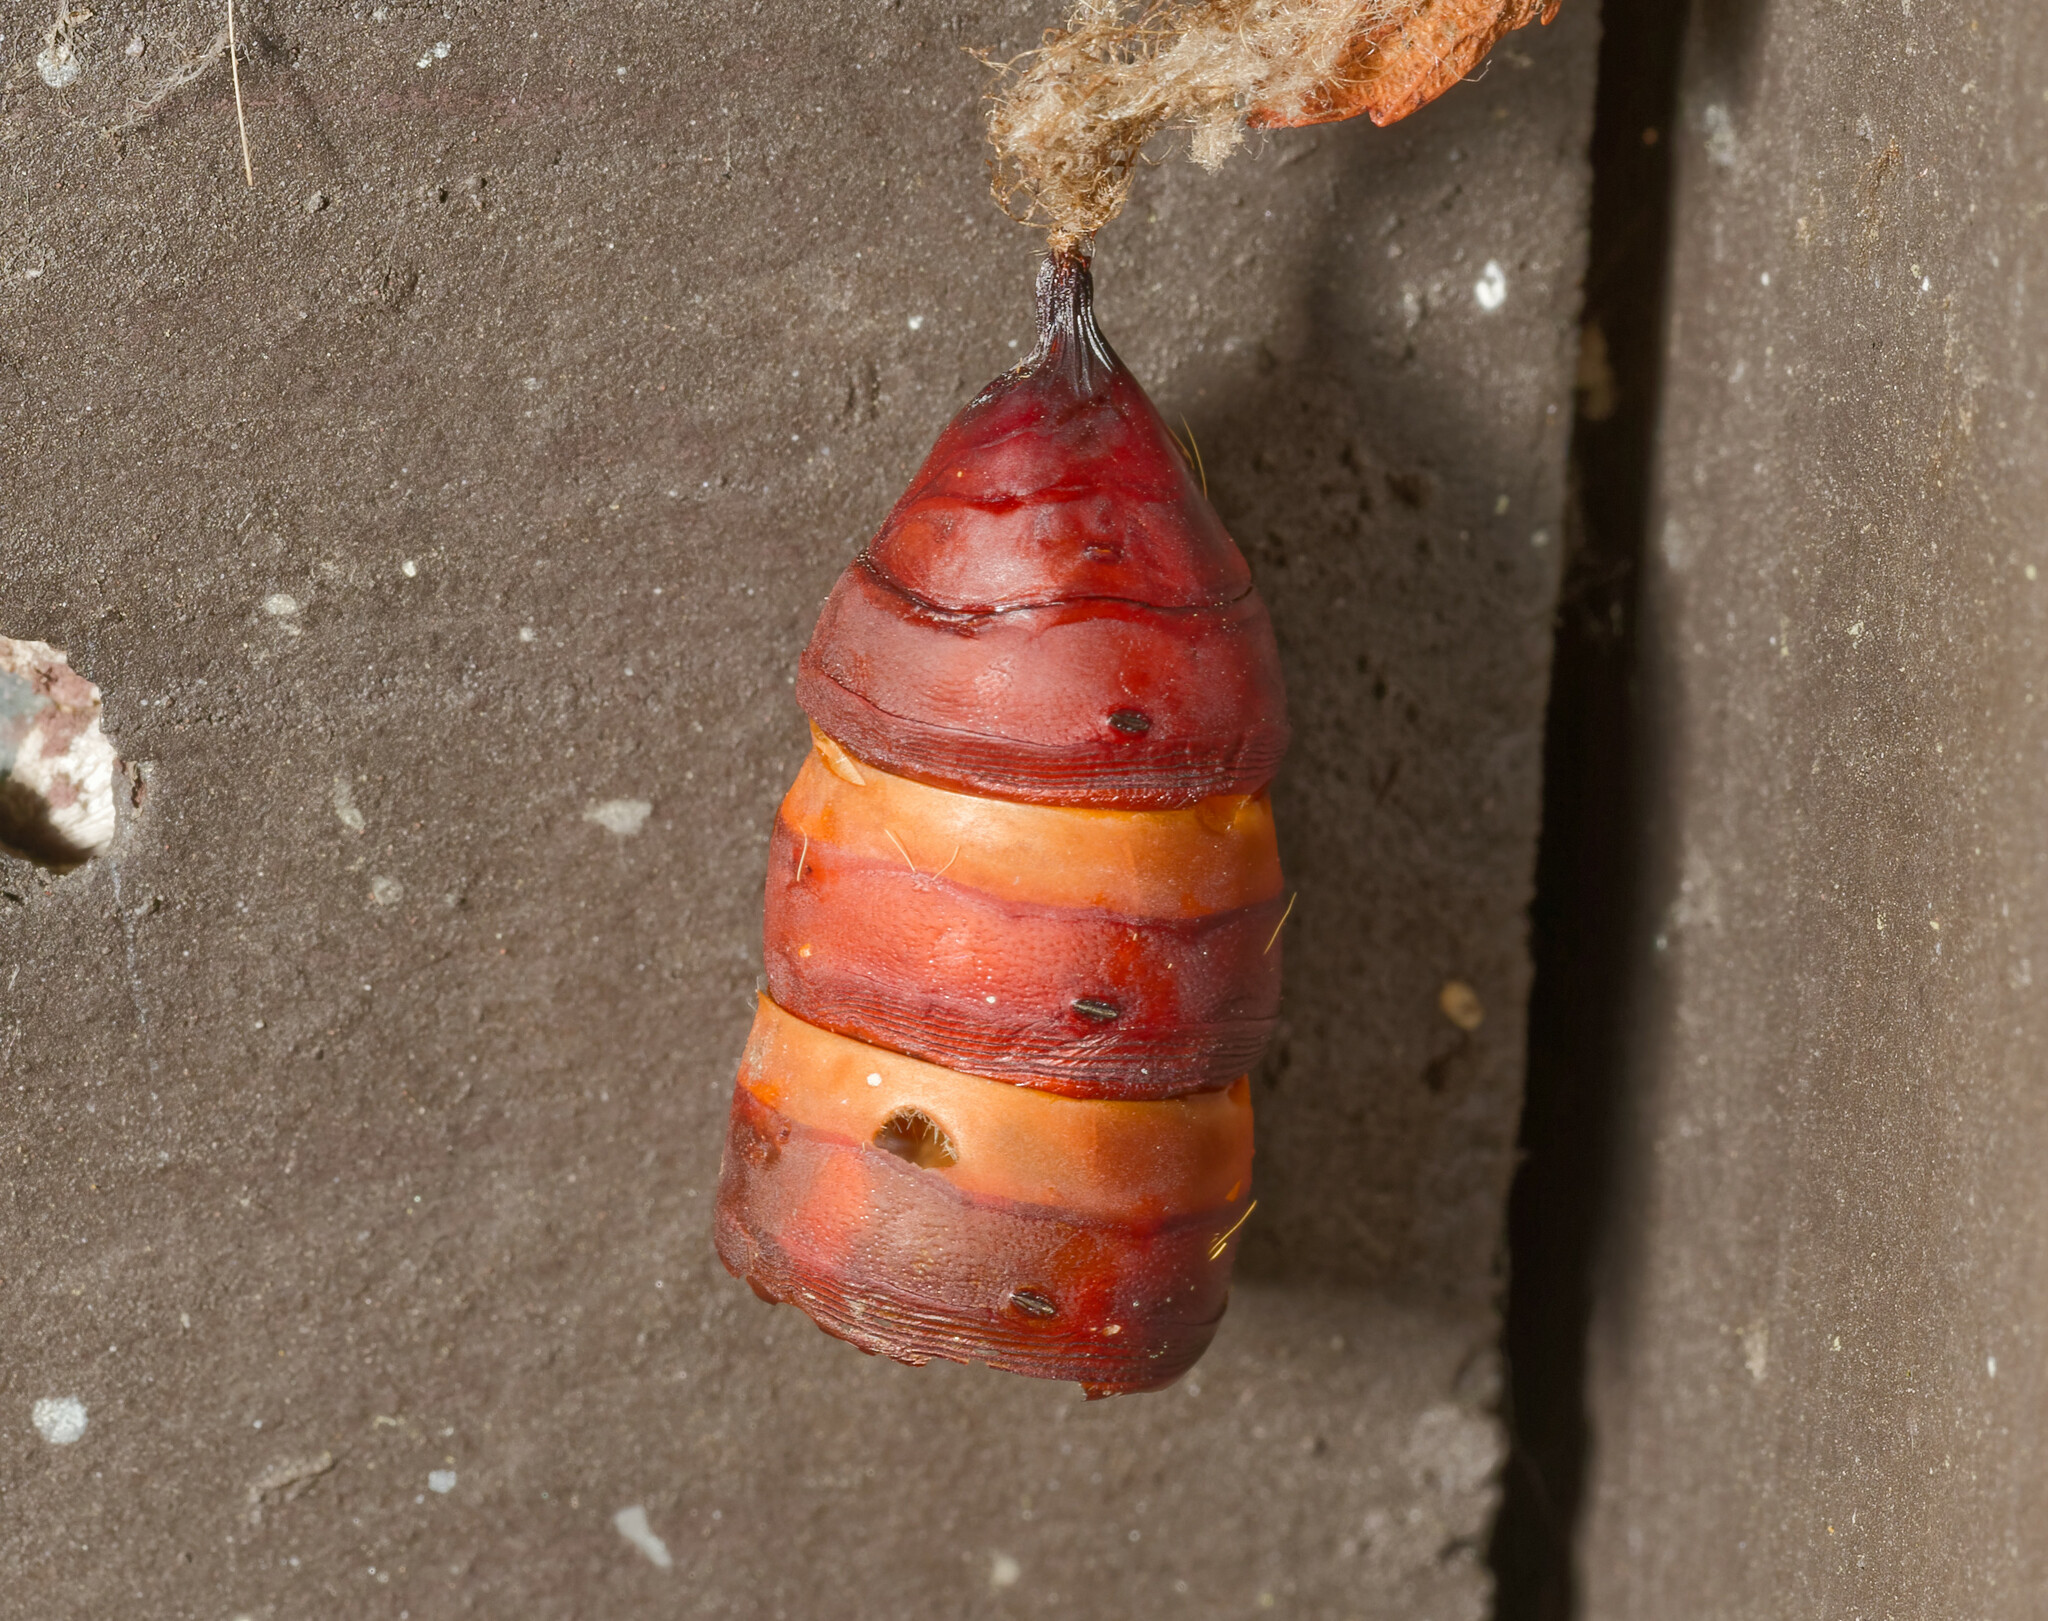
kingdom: Animalia
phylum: Arthropoda
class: Insecta
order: Lepidoptera
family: Erebidae
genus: Lymantria
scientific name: Lymantria dispar
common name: Gypsy moth
